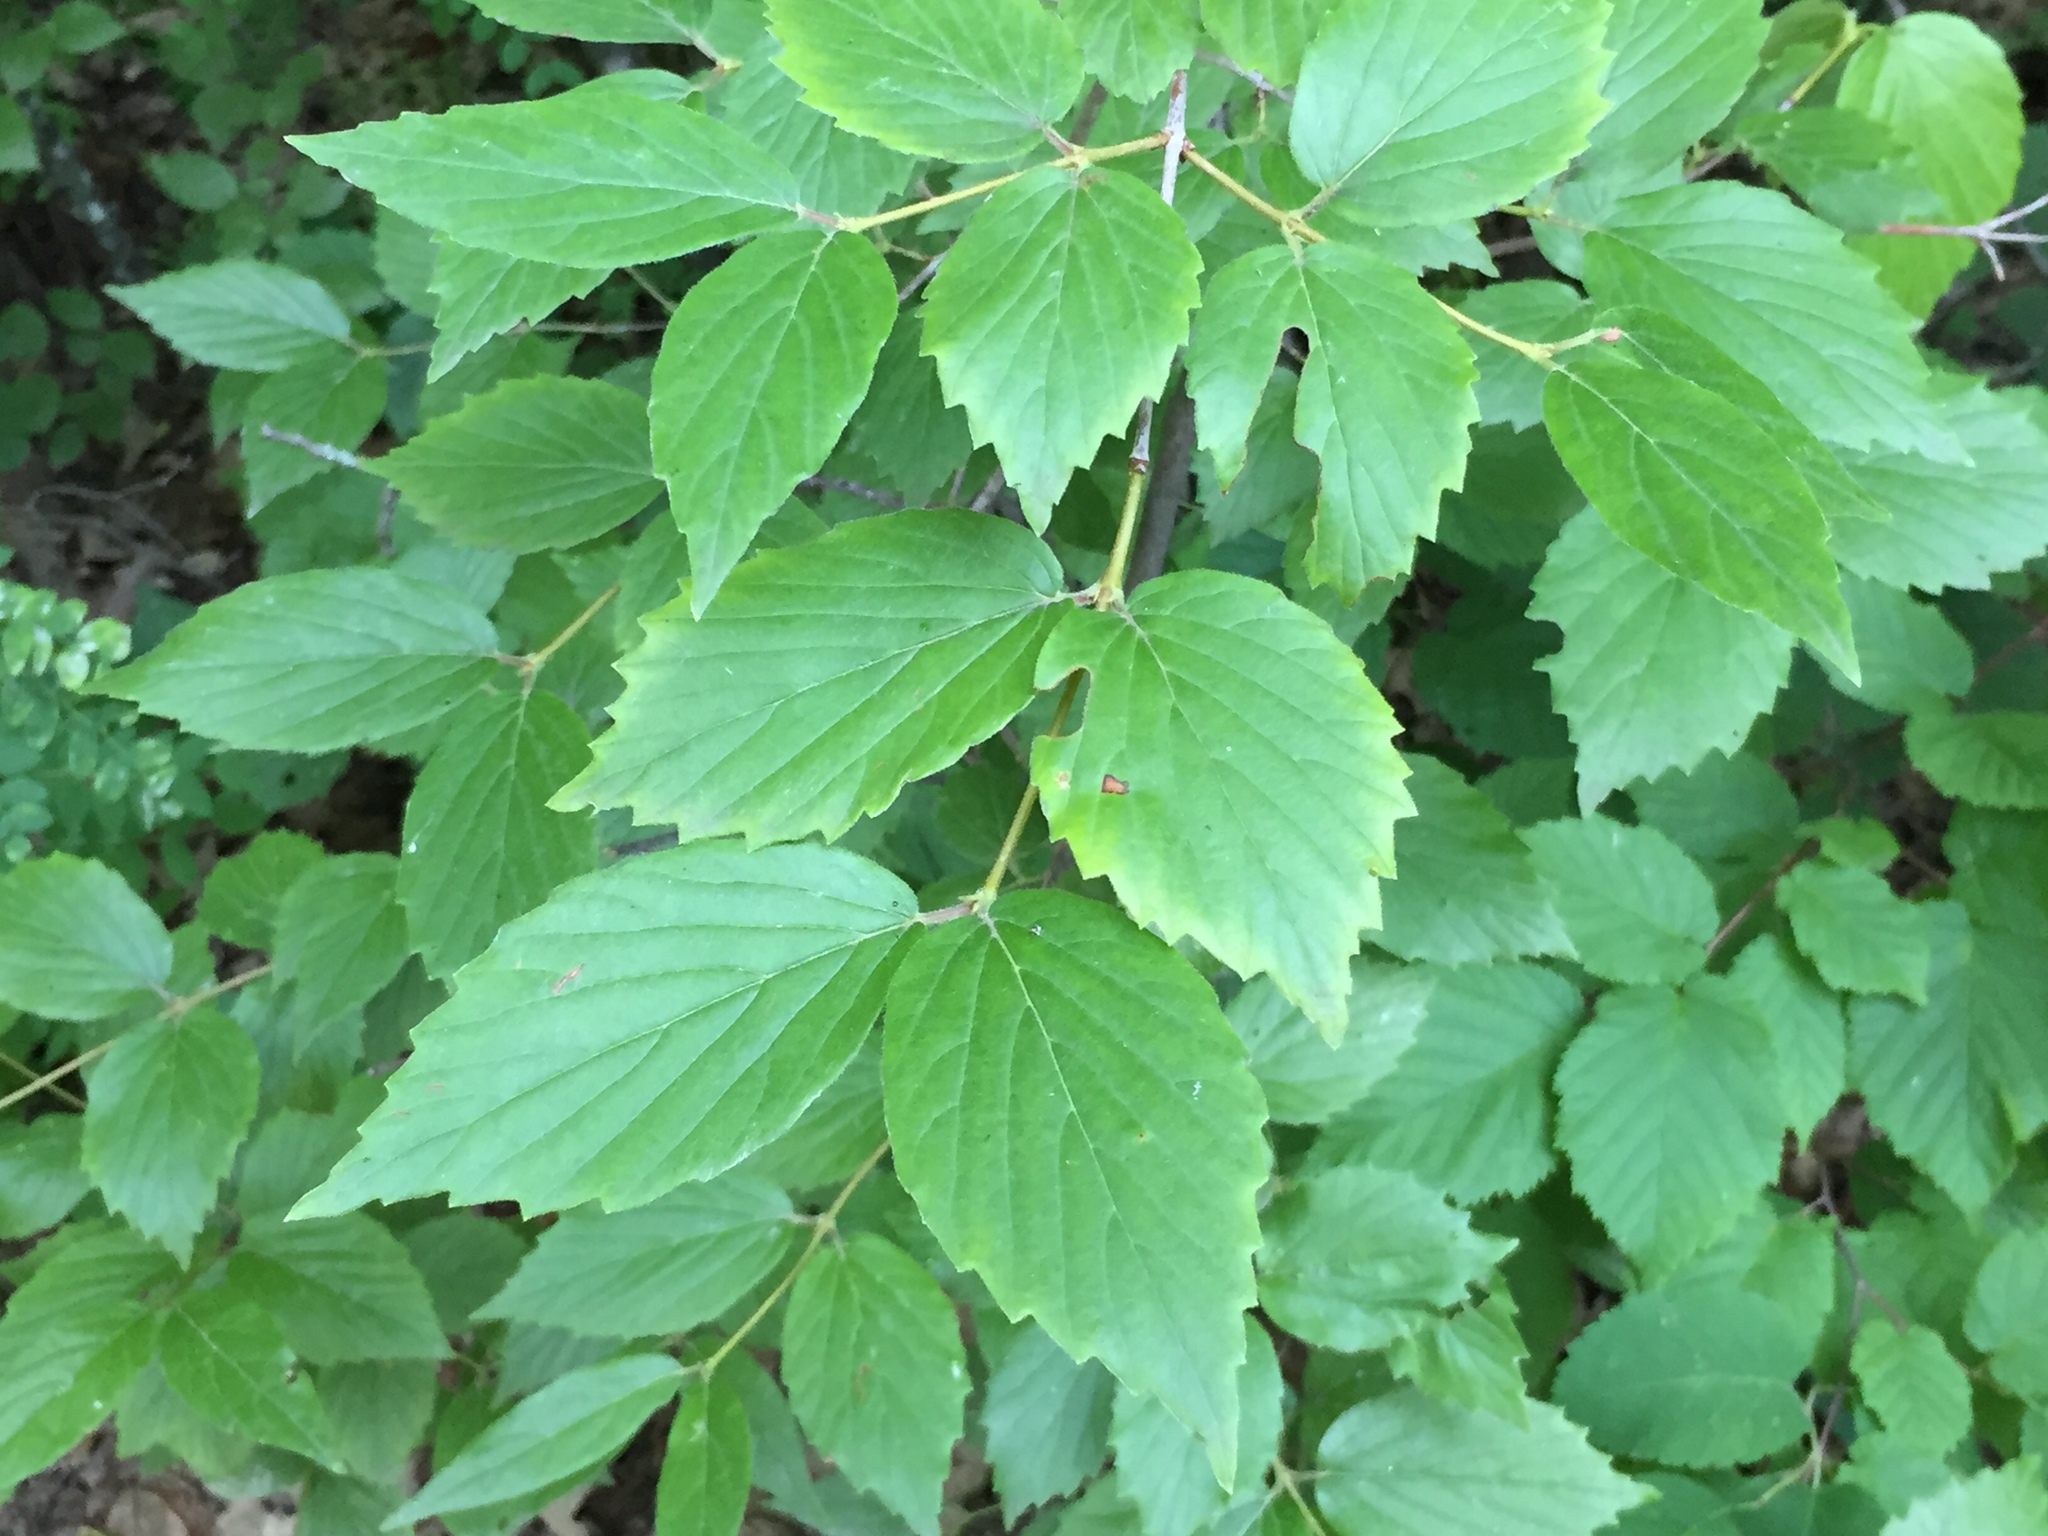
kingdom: Plantae
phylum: Tracheophyta
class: Magnoliopsida
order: Dipsacales
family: Viburnaceae
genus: Viburnum
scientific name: Viburnum rafinesqueanum
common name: Downy arrow-wood
